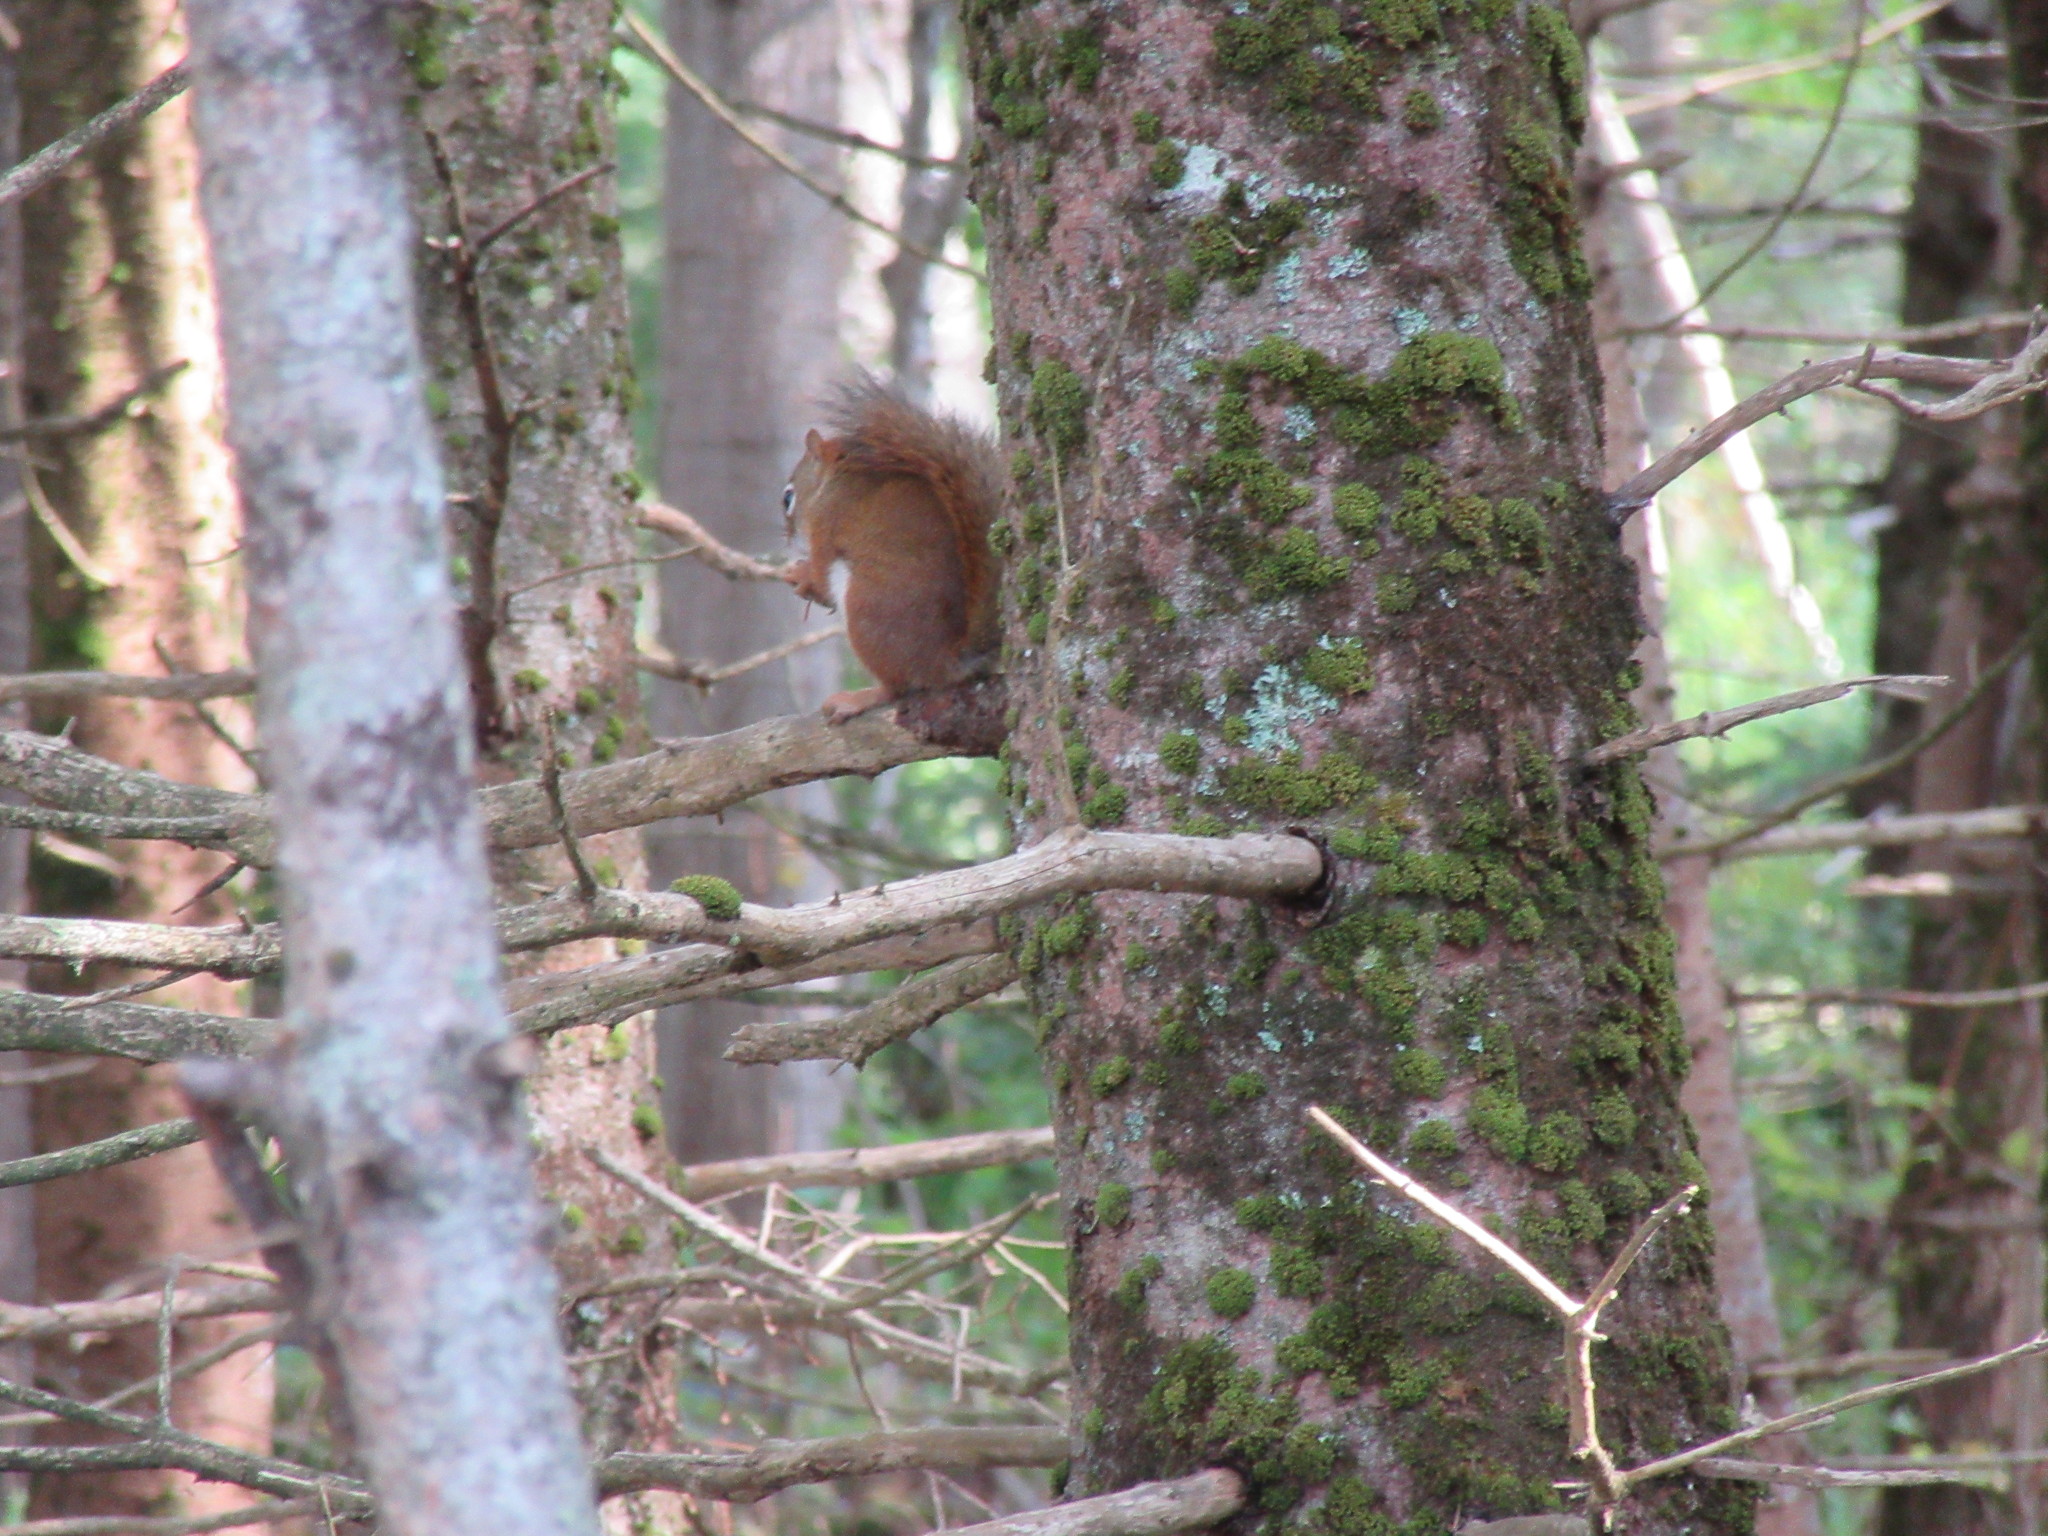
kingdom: Animalia
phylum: Chordata
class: Mammalia
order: Rodentia
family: Sciuridae
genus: Tamiasciurus
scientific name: Tamiasciurus hudsonicus
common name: Red squirrel
